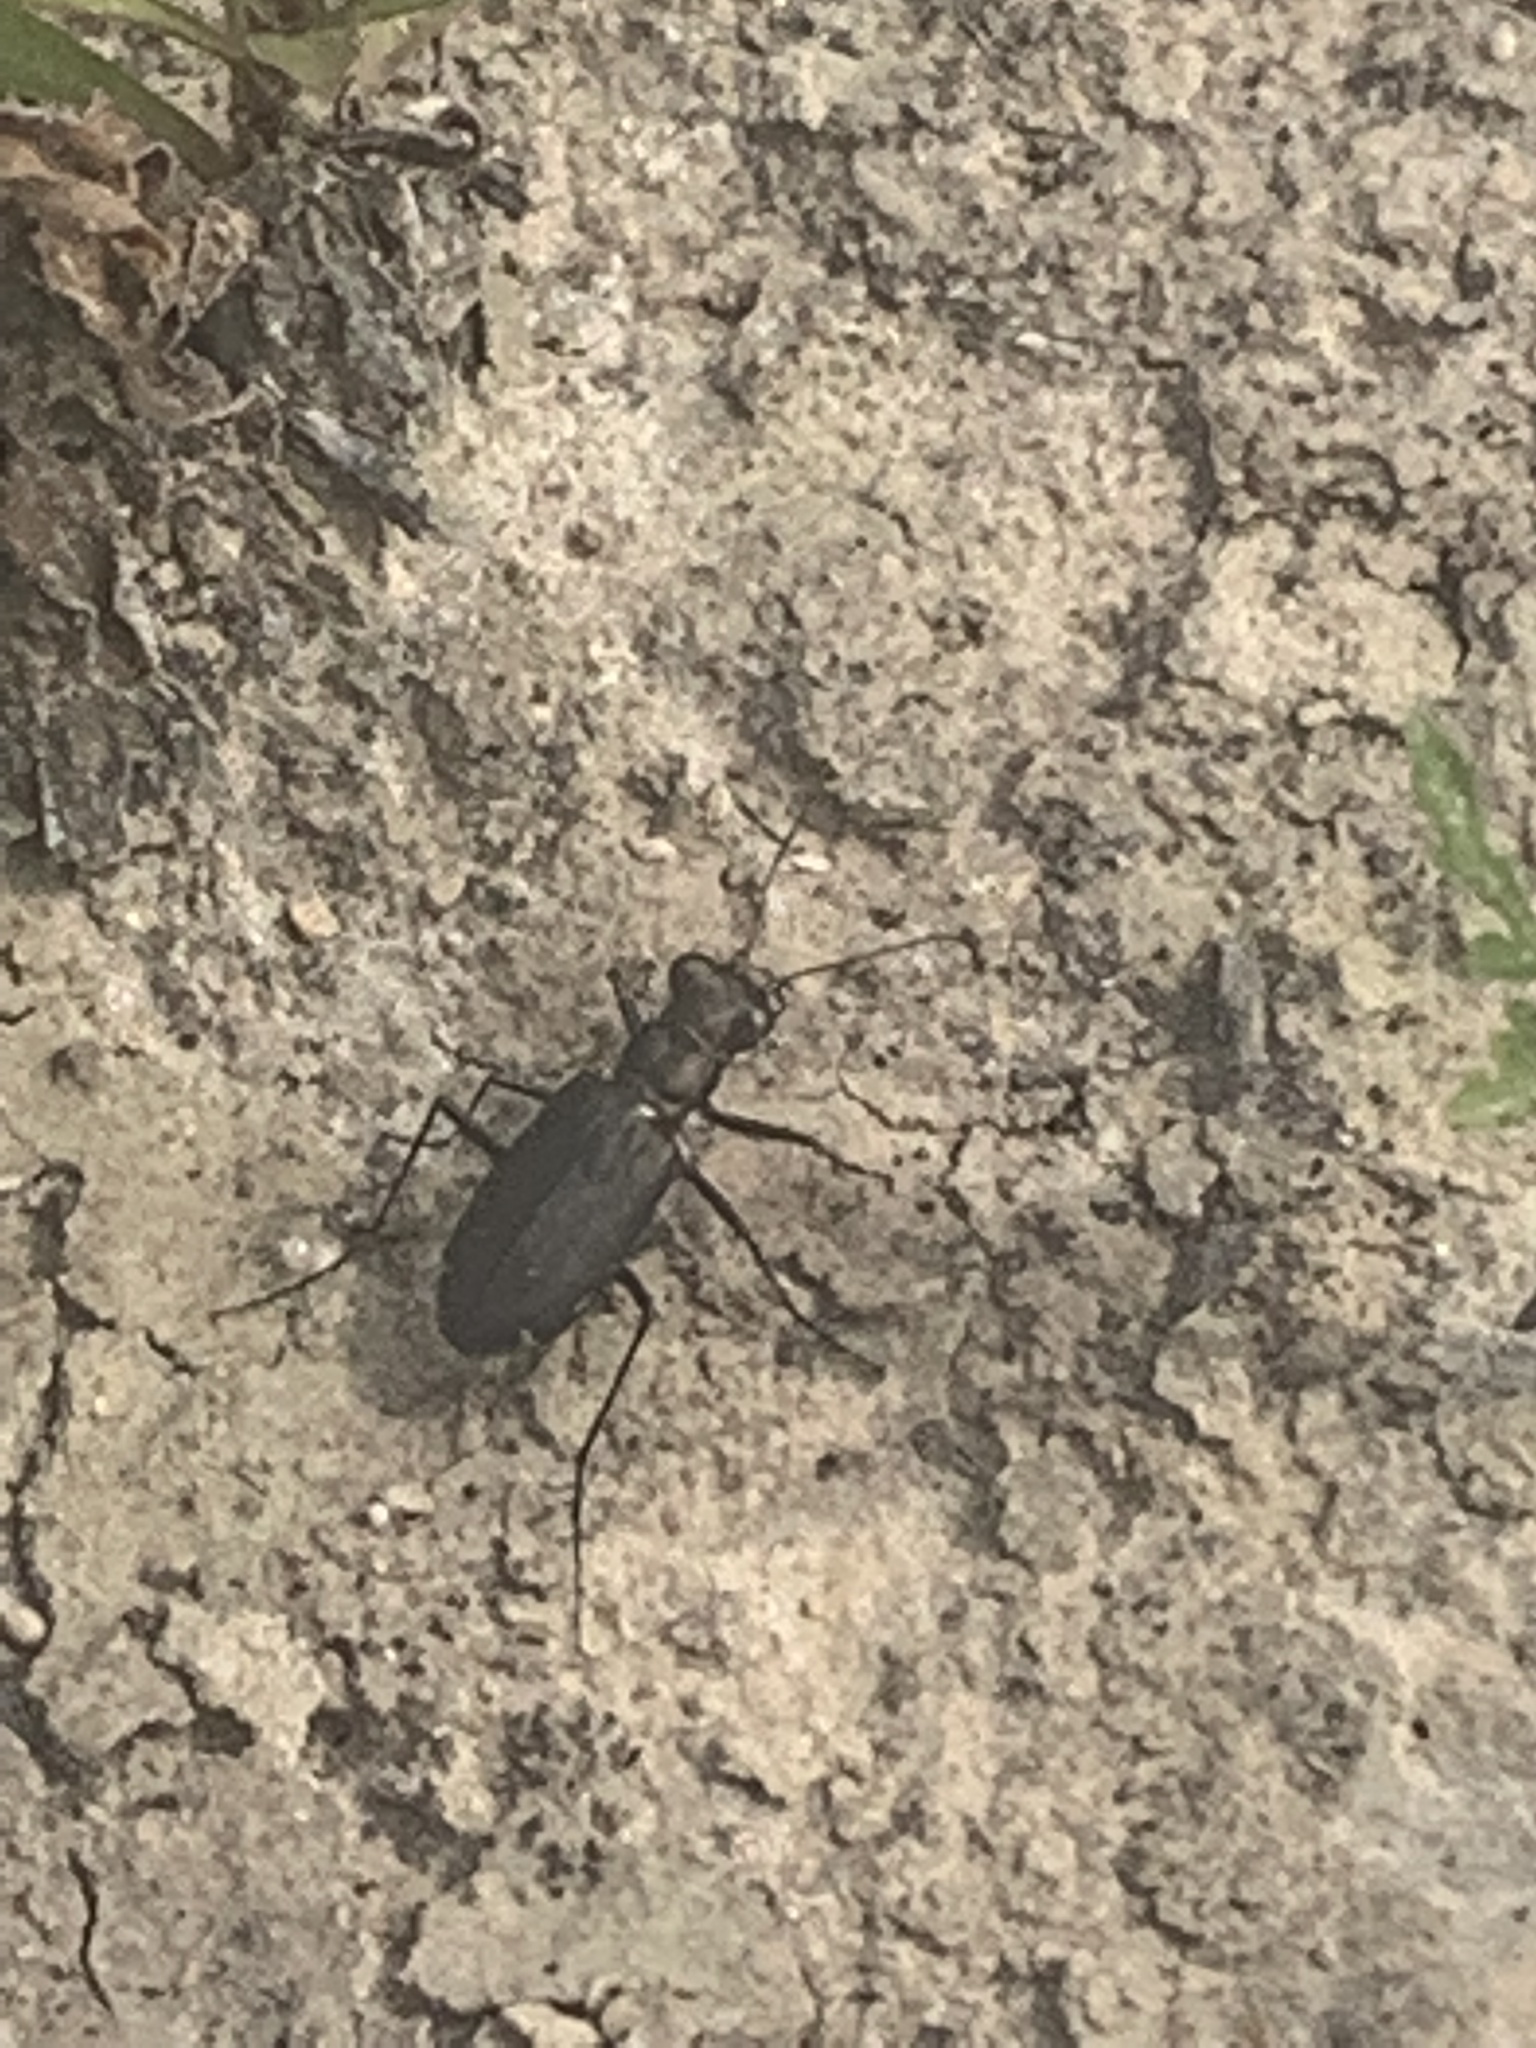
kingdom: Animalia
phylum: Arthropoda
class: Insecta
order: Coleoptera
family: Carabidae
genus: Cicindela
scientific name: Cicindela punctulata
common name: Punctured tiger beetle
